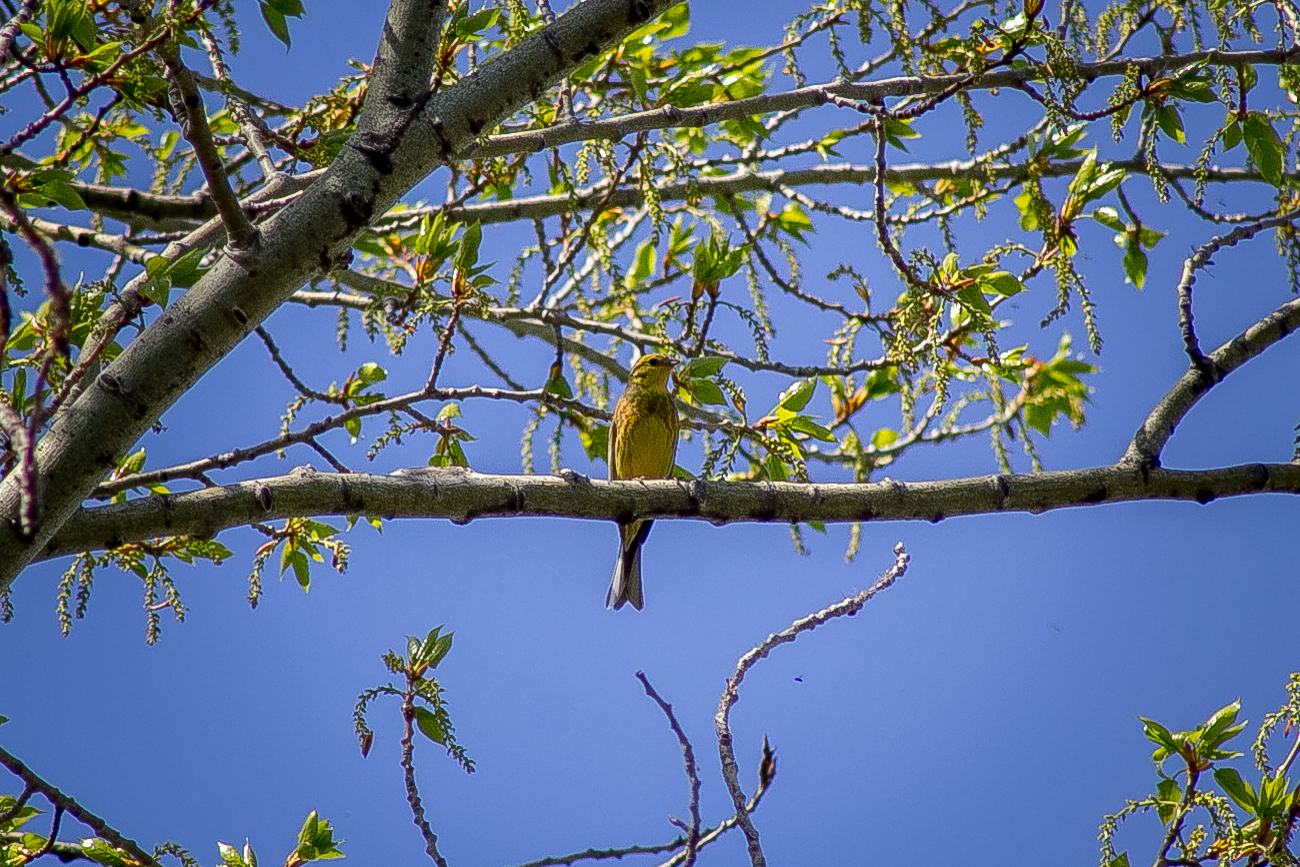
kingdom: Animalia
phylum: Chordata
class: Aves
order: Passeriformes
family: Emberizidae
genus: Emberiza
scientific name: Emberiza citrinella
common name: Yellowhammer
